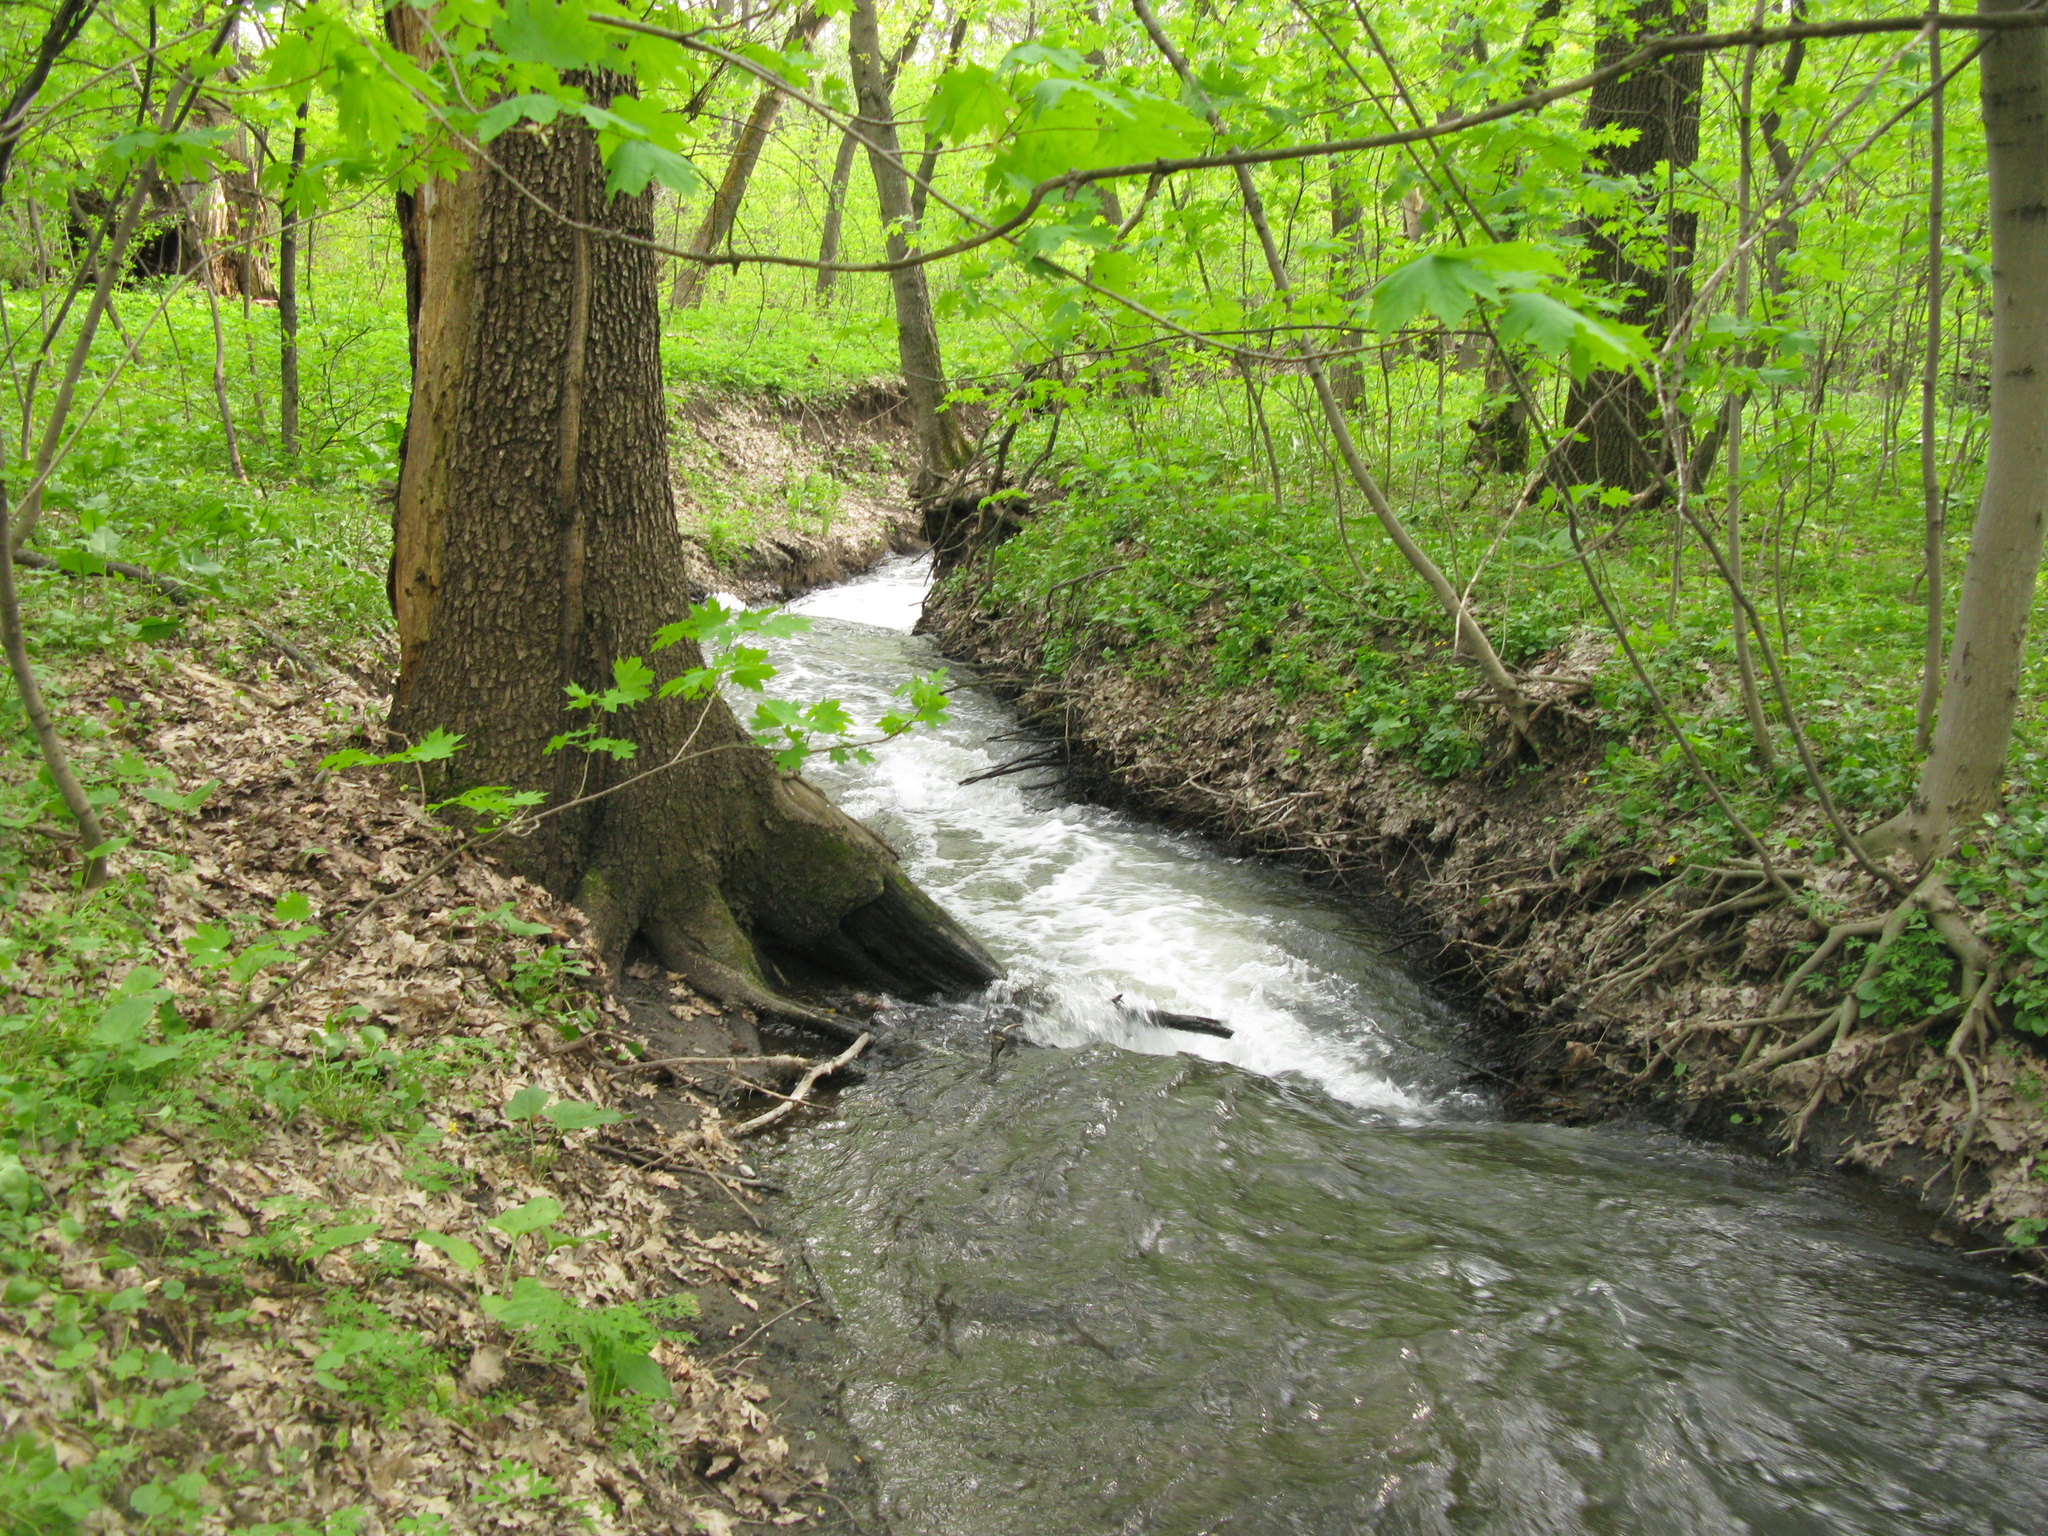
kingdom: Plantae
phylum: Tracheophyta
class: Magnoliopsida
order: Sapindales
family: Sapindaceae
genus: Acer
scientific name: Acer platanoides
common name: Norway maple
